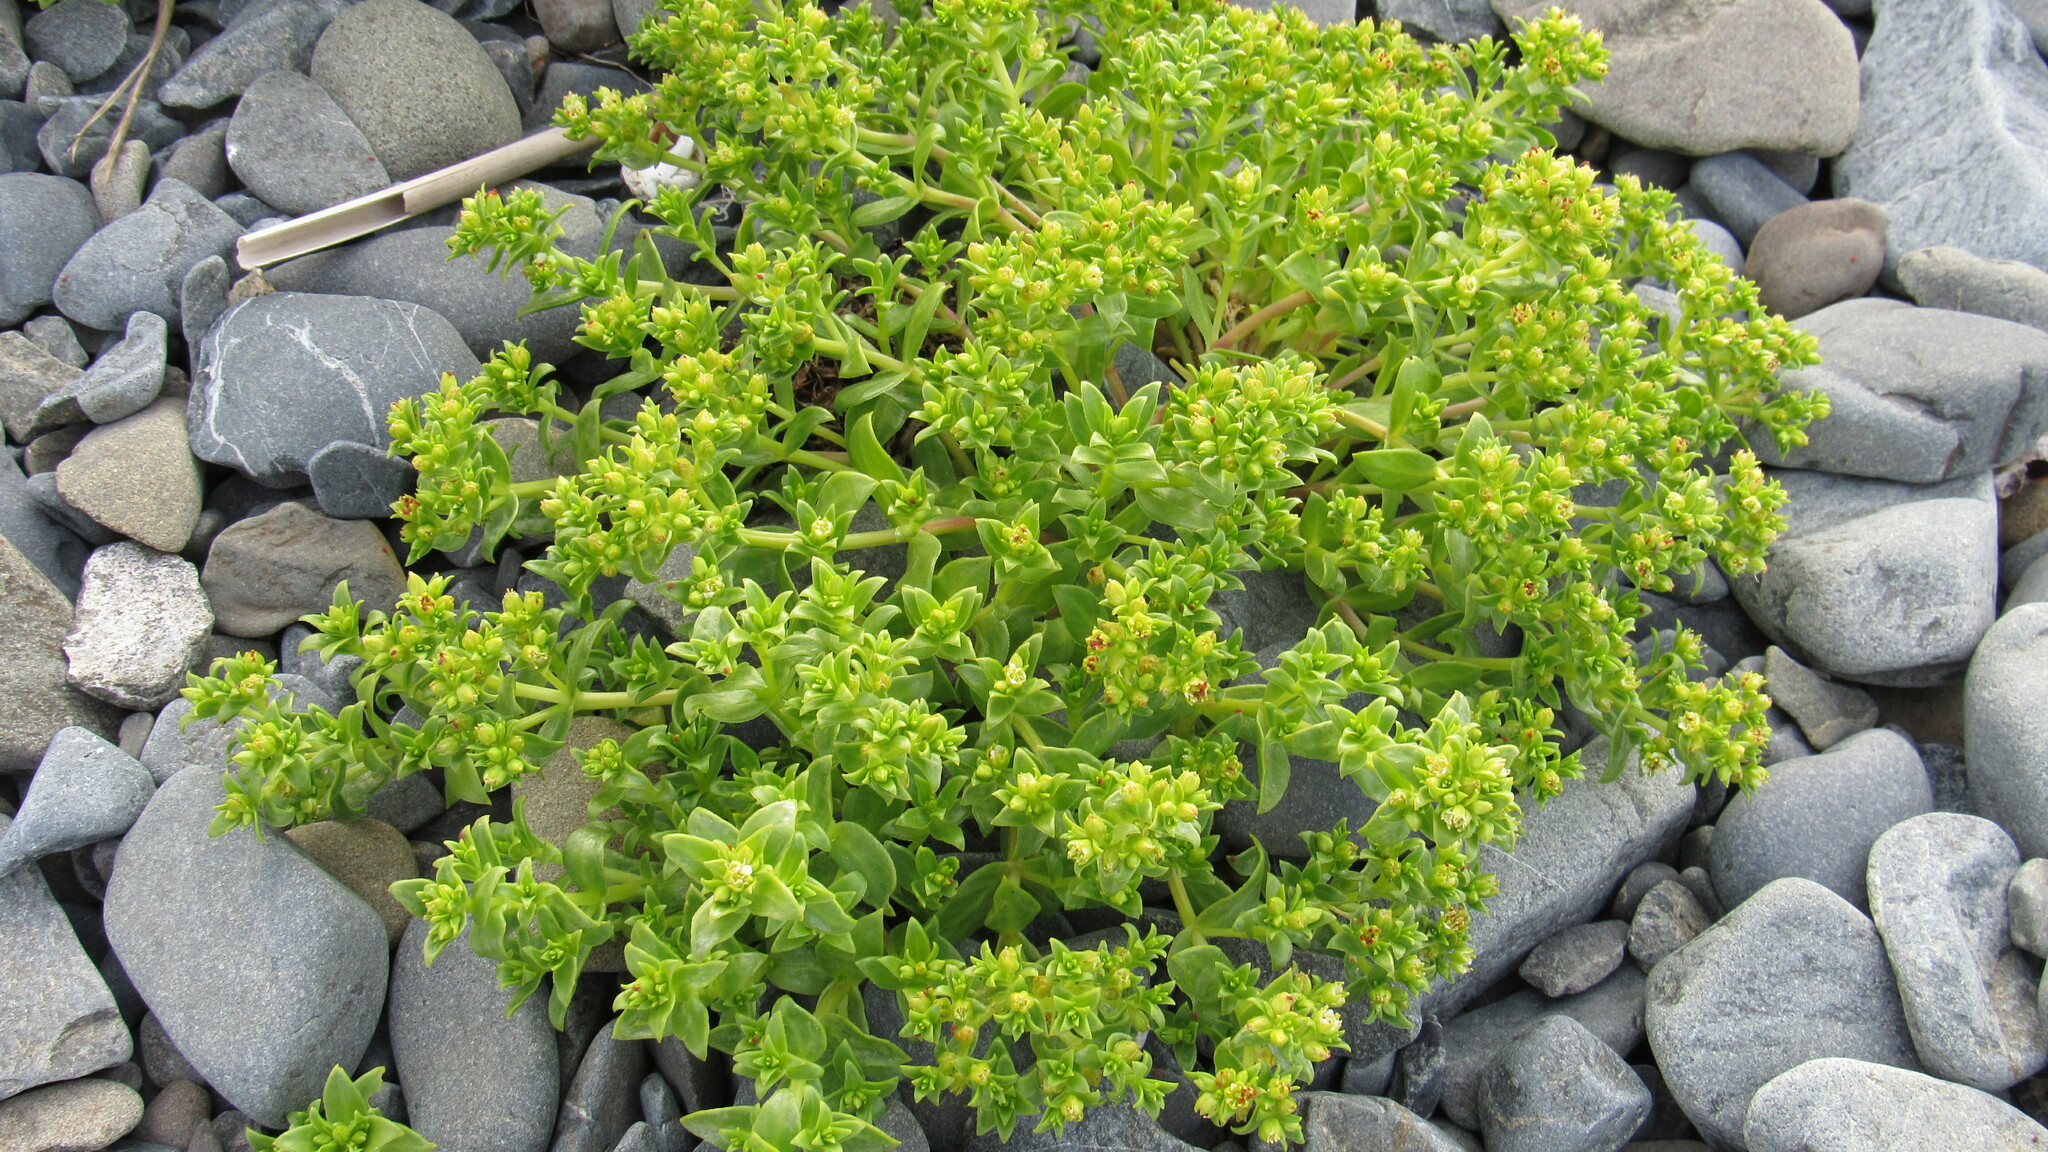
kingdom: Plantae
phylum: Tracheophyta
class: Magnoliopsida
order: Caryophyllales
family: Caryophyllaceae
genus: Honckenya
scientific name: Honckenya peploides
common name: Sea sandwort
